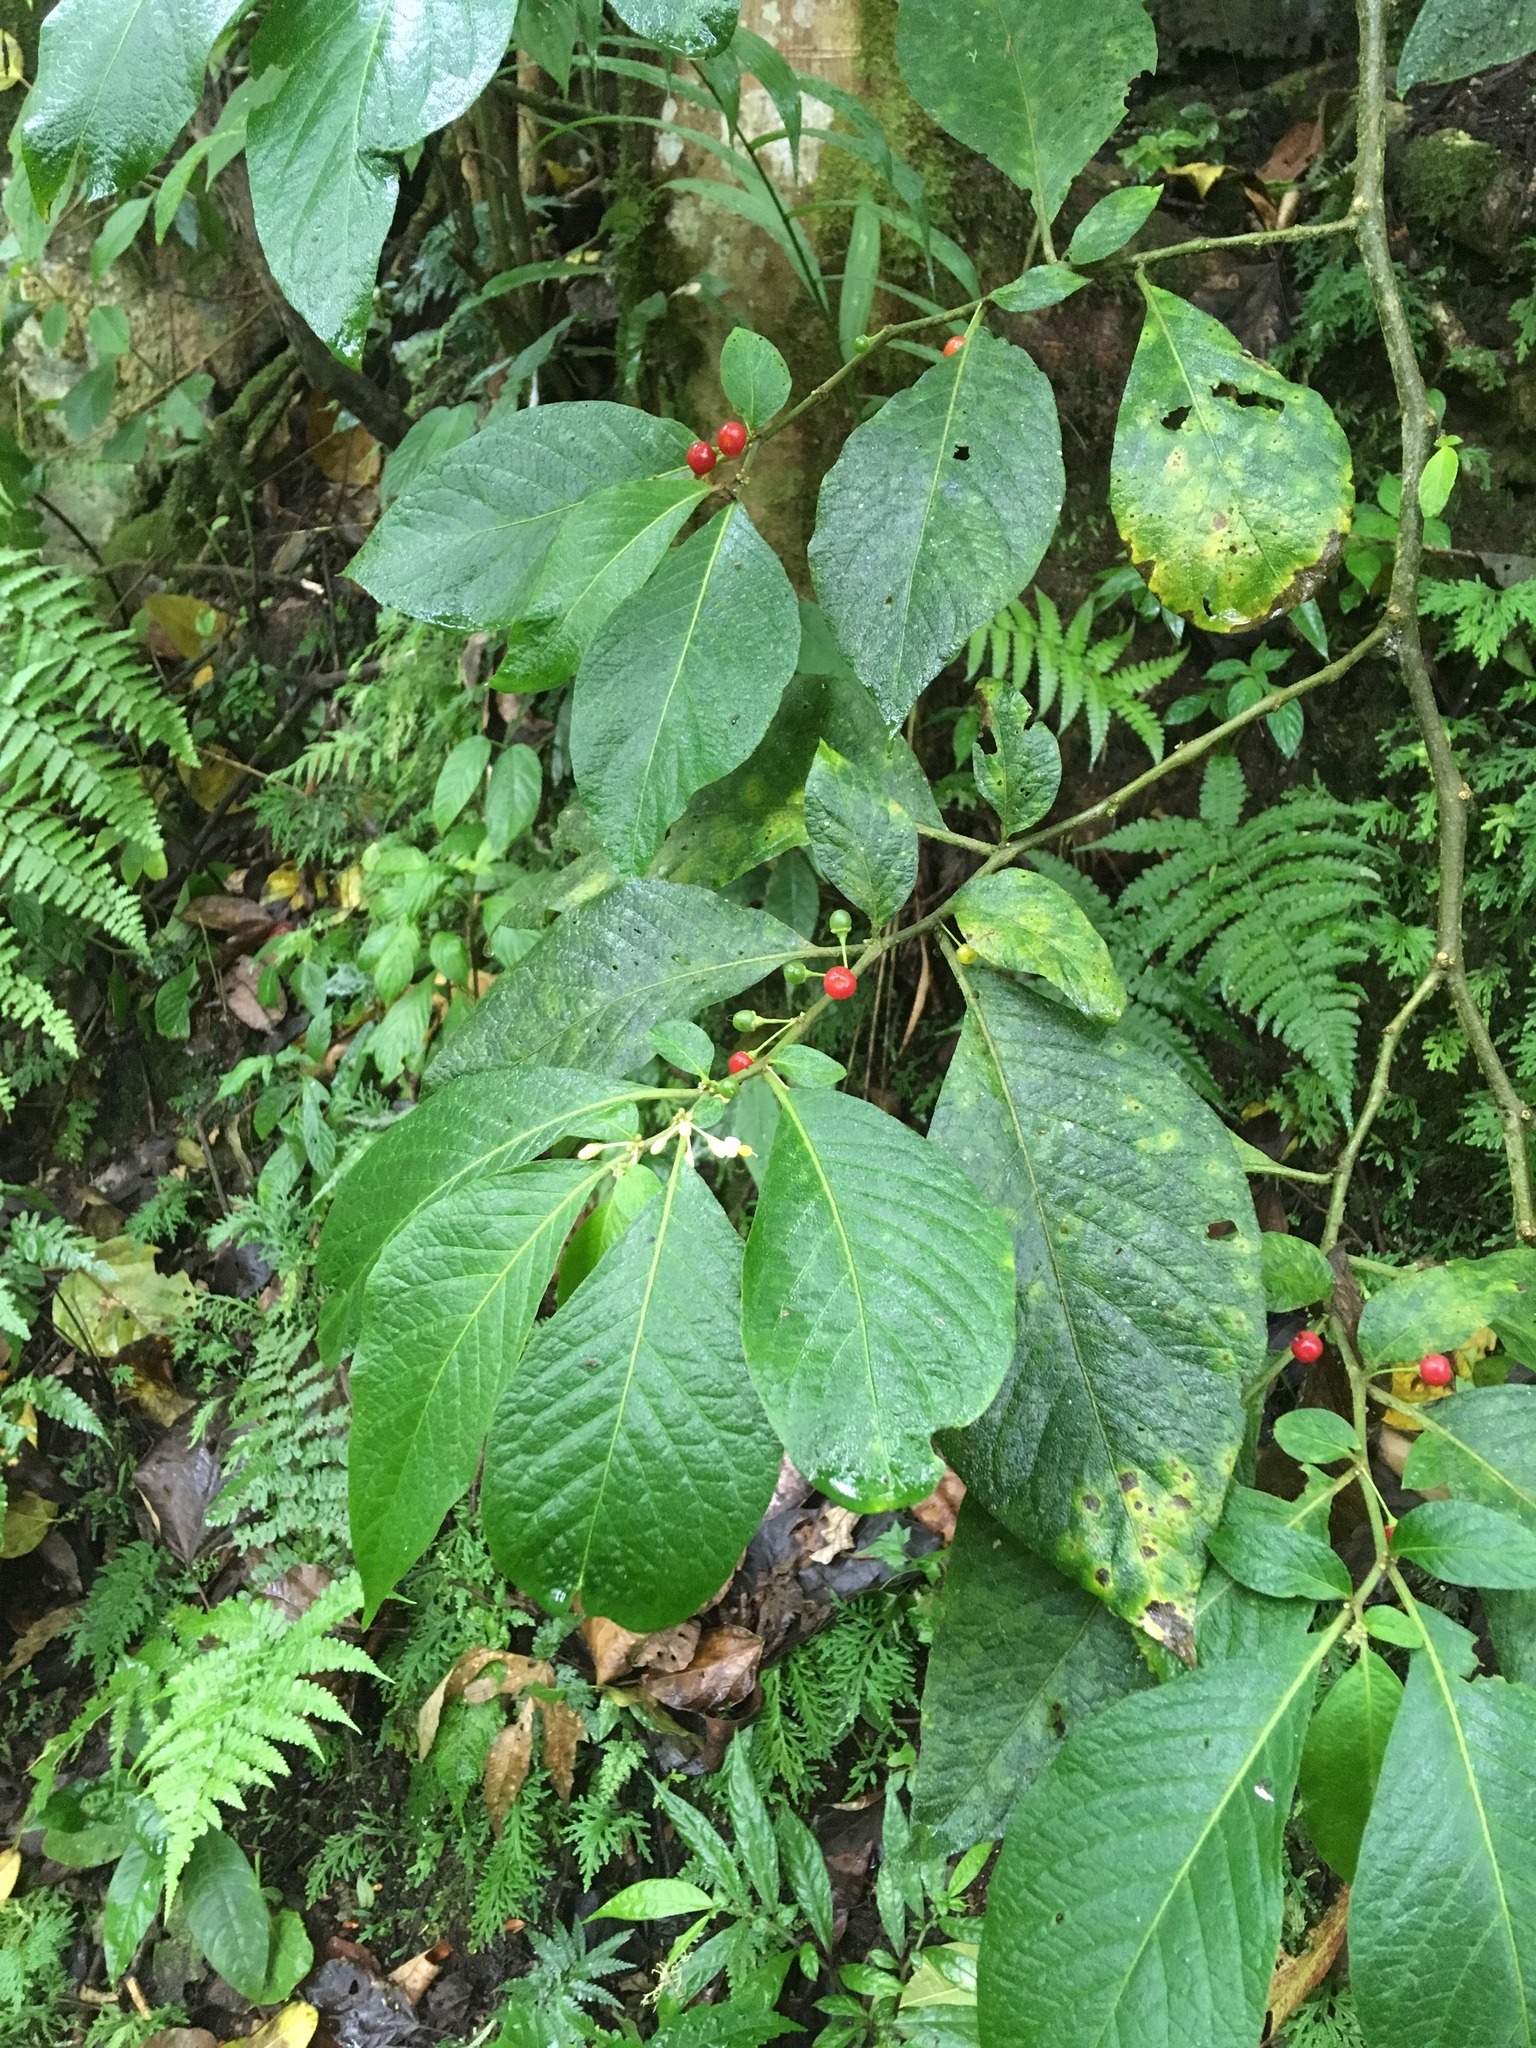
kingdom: Plantae
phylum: Tracheophyta
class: Magnoliopsida
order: Solanales
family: Solanaceae
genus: Lycianthes
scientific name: Lycianthes radiata
